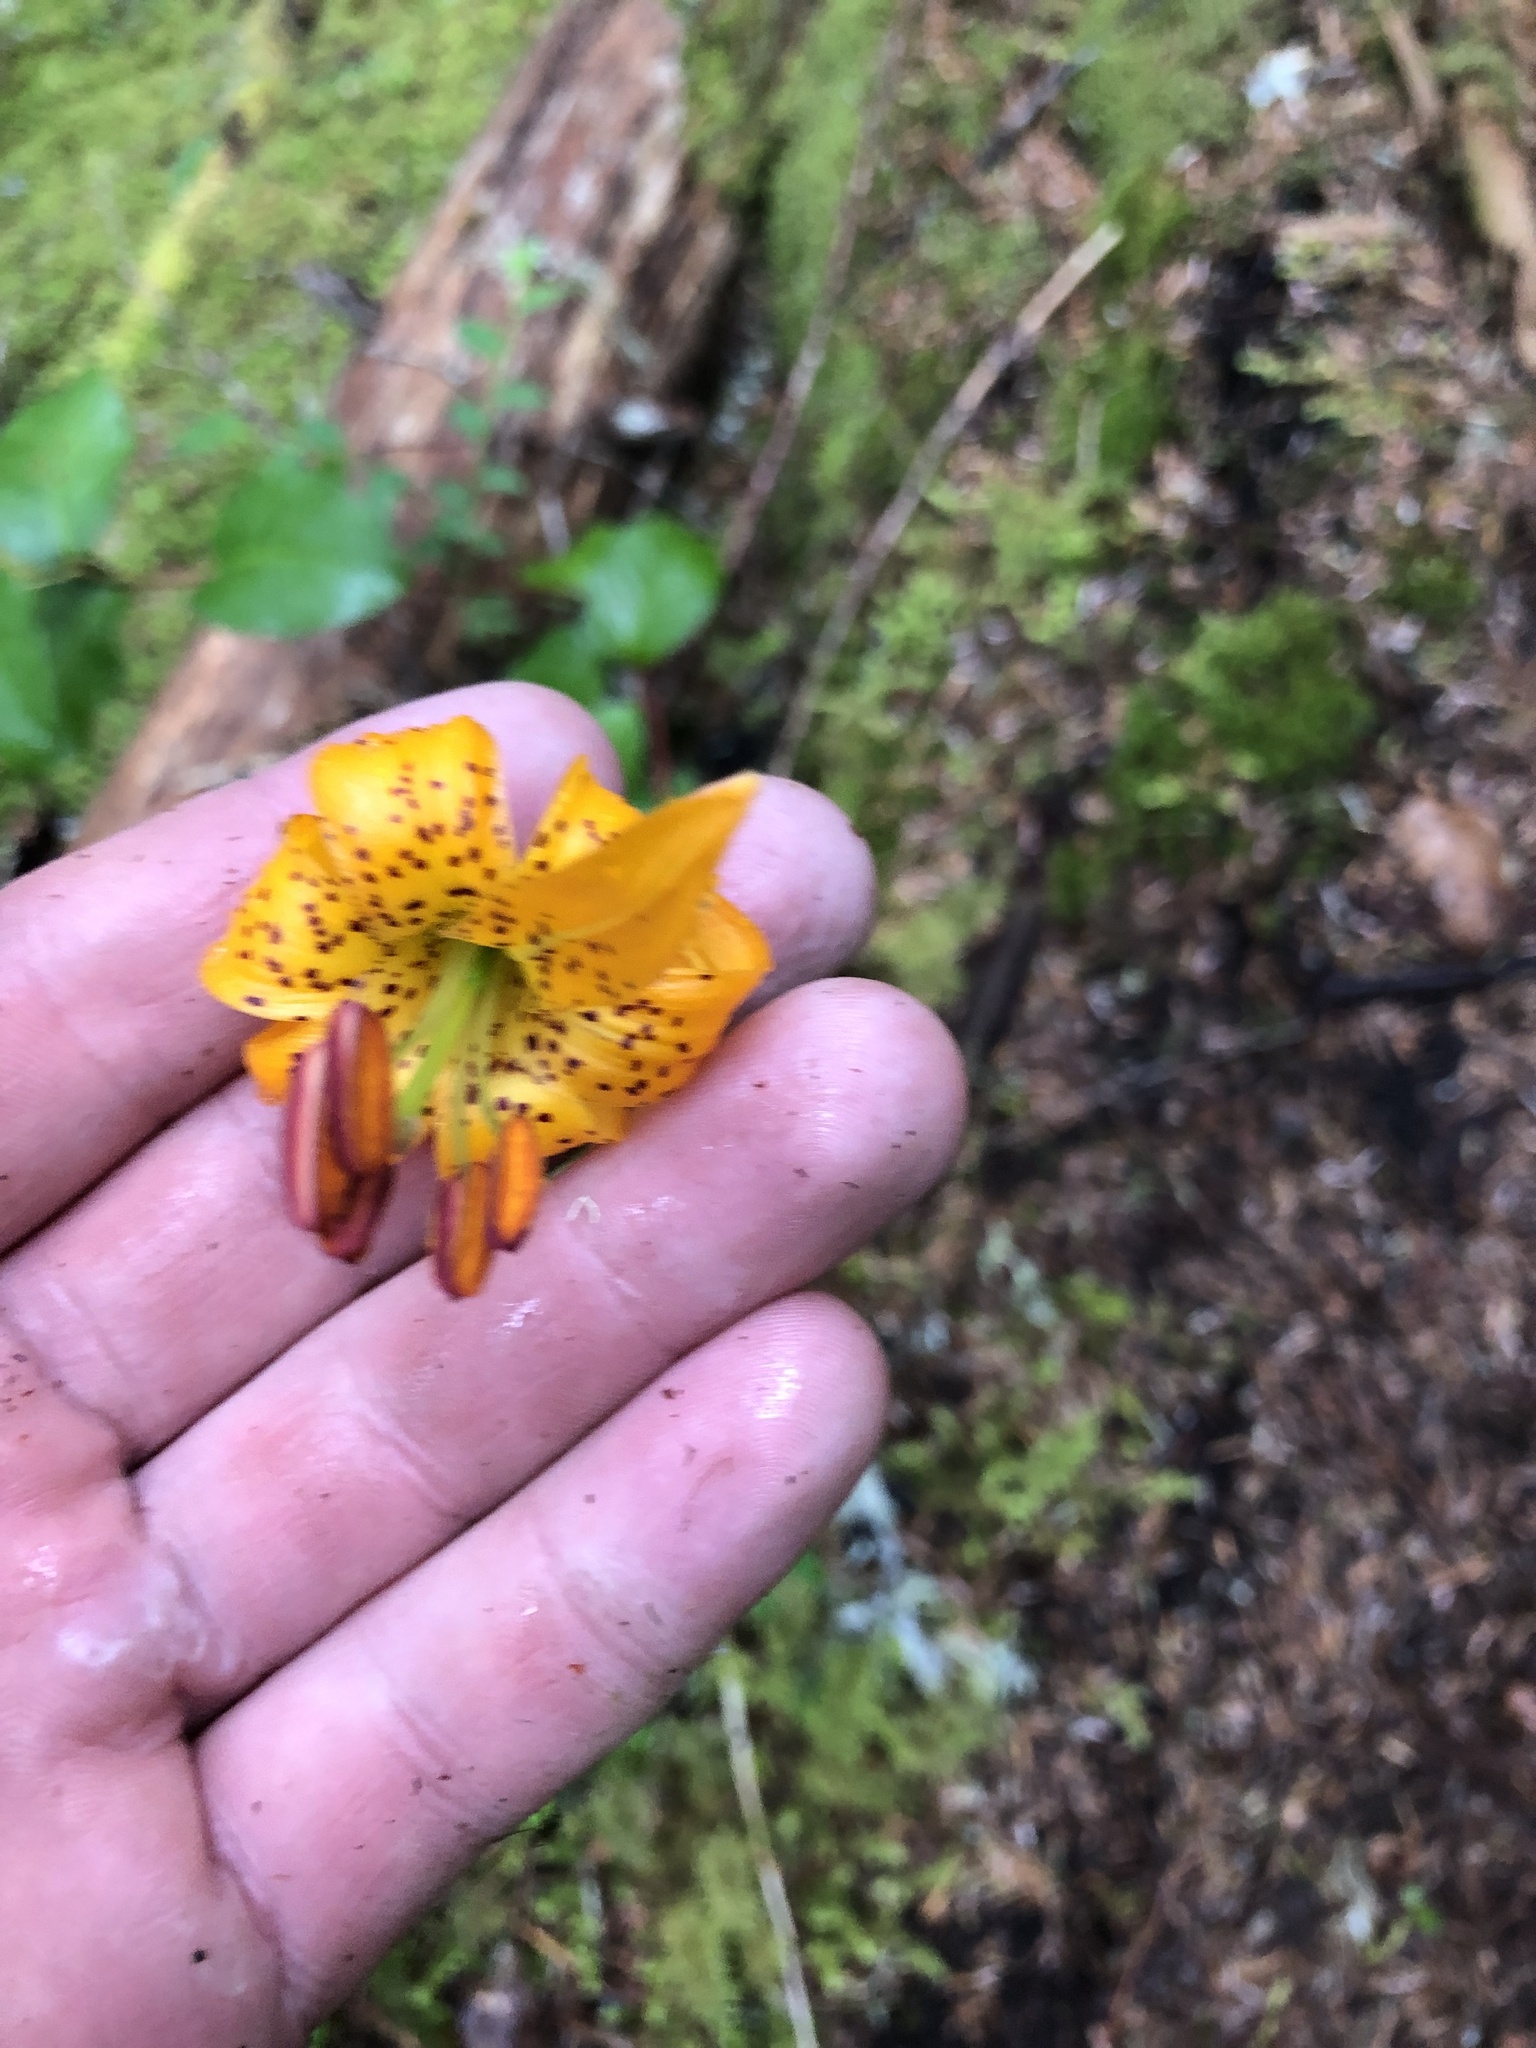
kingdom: Plantae
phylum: Tracheophyta
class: Liliopsida
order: Liliales
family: Liliaceae
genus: Lilium
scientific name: Lilium columbianum
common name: Columbia lily
